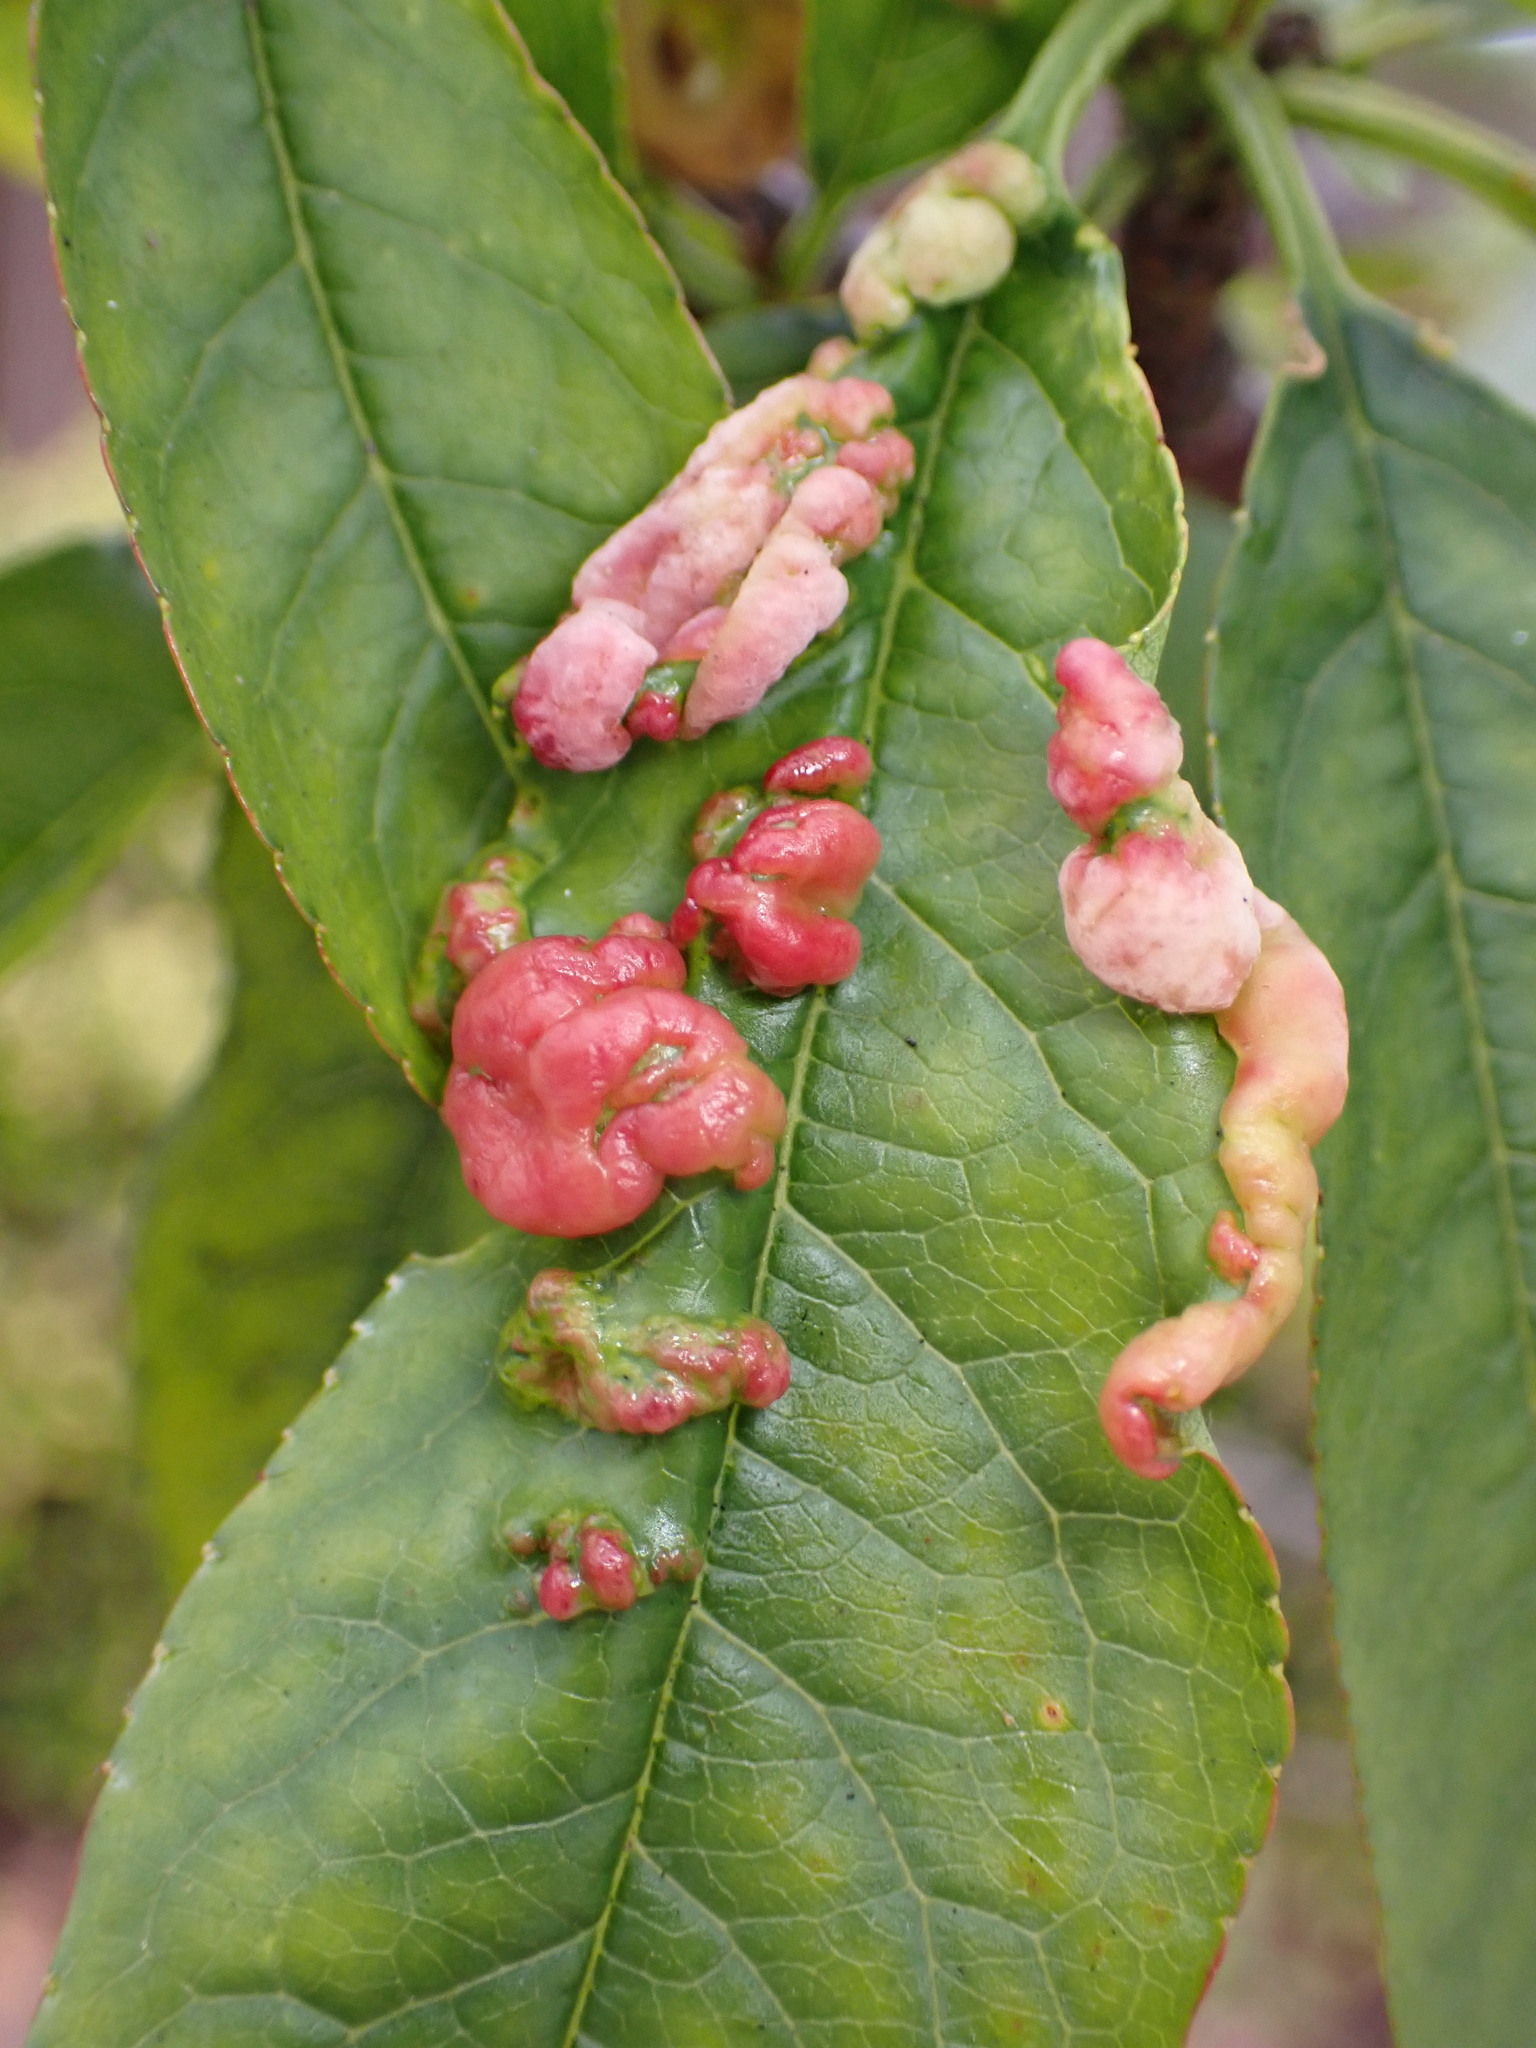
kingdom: Fungi
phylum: Ascomycota
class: Taphrinomycetes
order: Taphrinales
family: Taphrinaceae
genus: Taphrina
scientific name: Taphrina deformans
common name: Peach leaf curl
